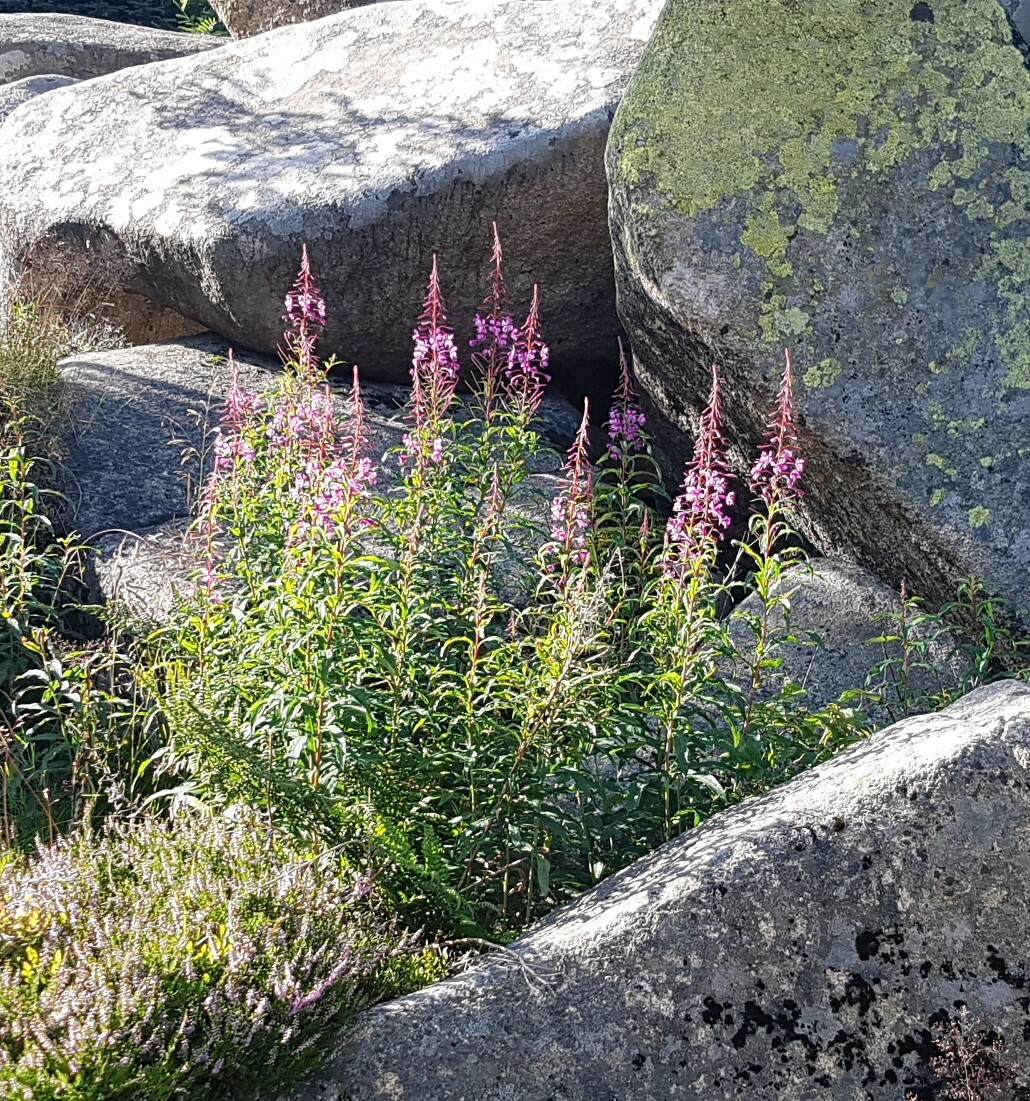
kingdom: Plantae
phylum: Tracheophyta
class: Magnoliopsida
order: Myrtales
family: Onagraceae
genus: Chamaenerion
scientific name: Chamaenerion angustifolium
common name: Fireweed
